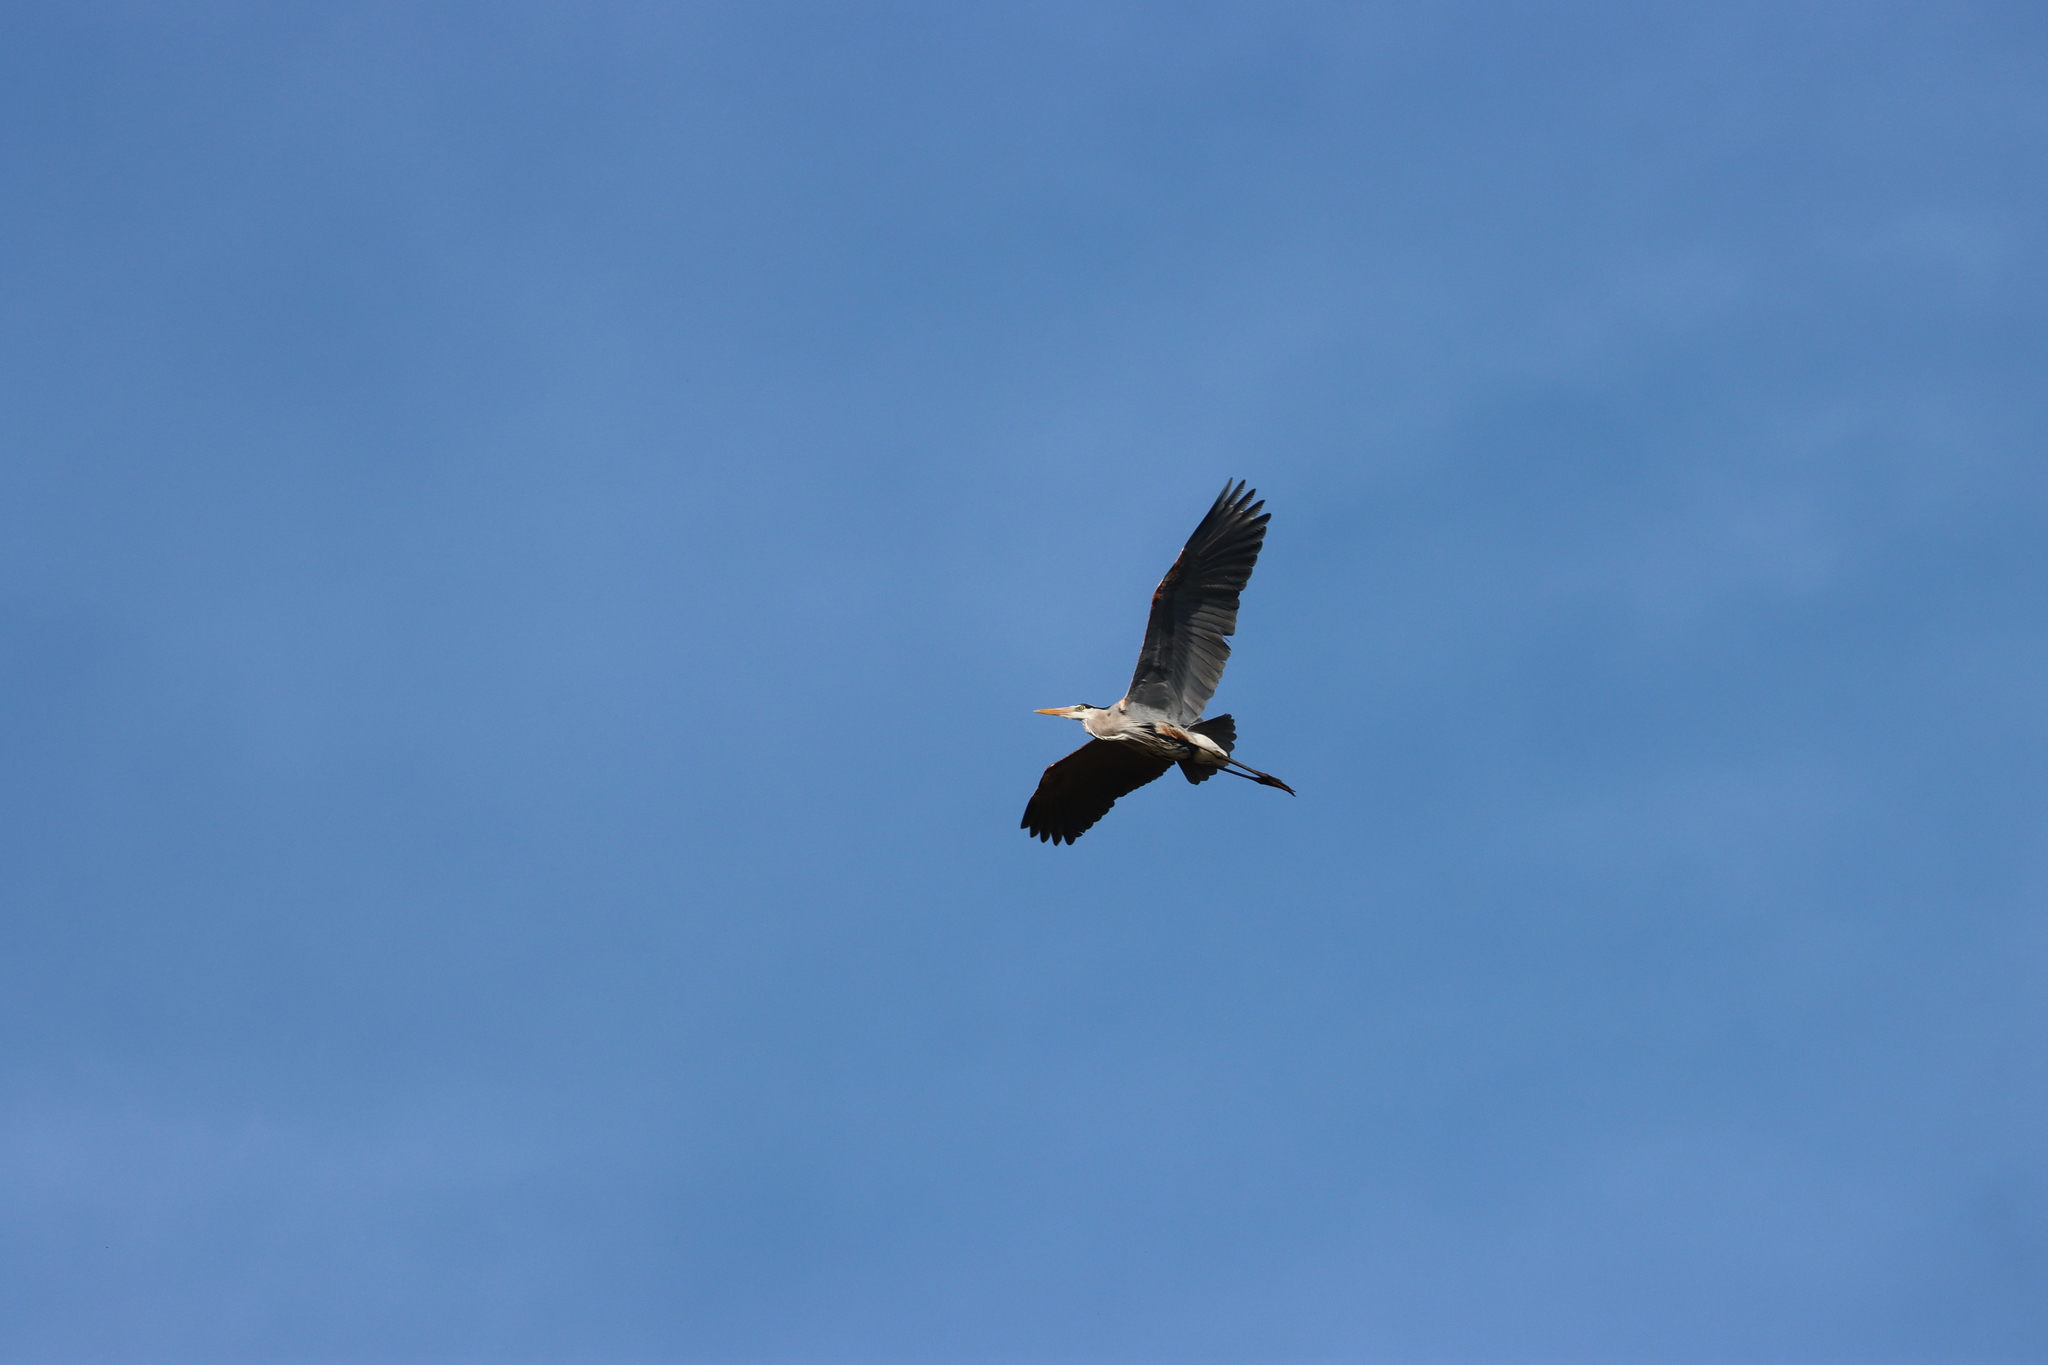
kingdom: Animalia
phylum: Chordata
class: Aves
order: Pelecaniformes
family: Ardeidae
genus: Ardea
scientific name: Ardea herodias
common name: Great blue heron
